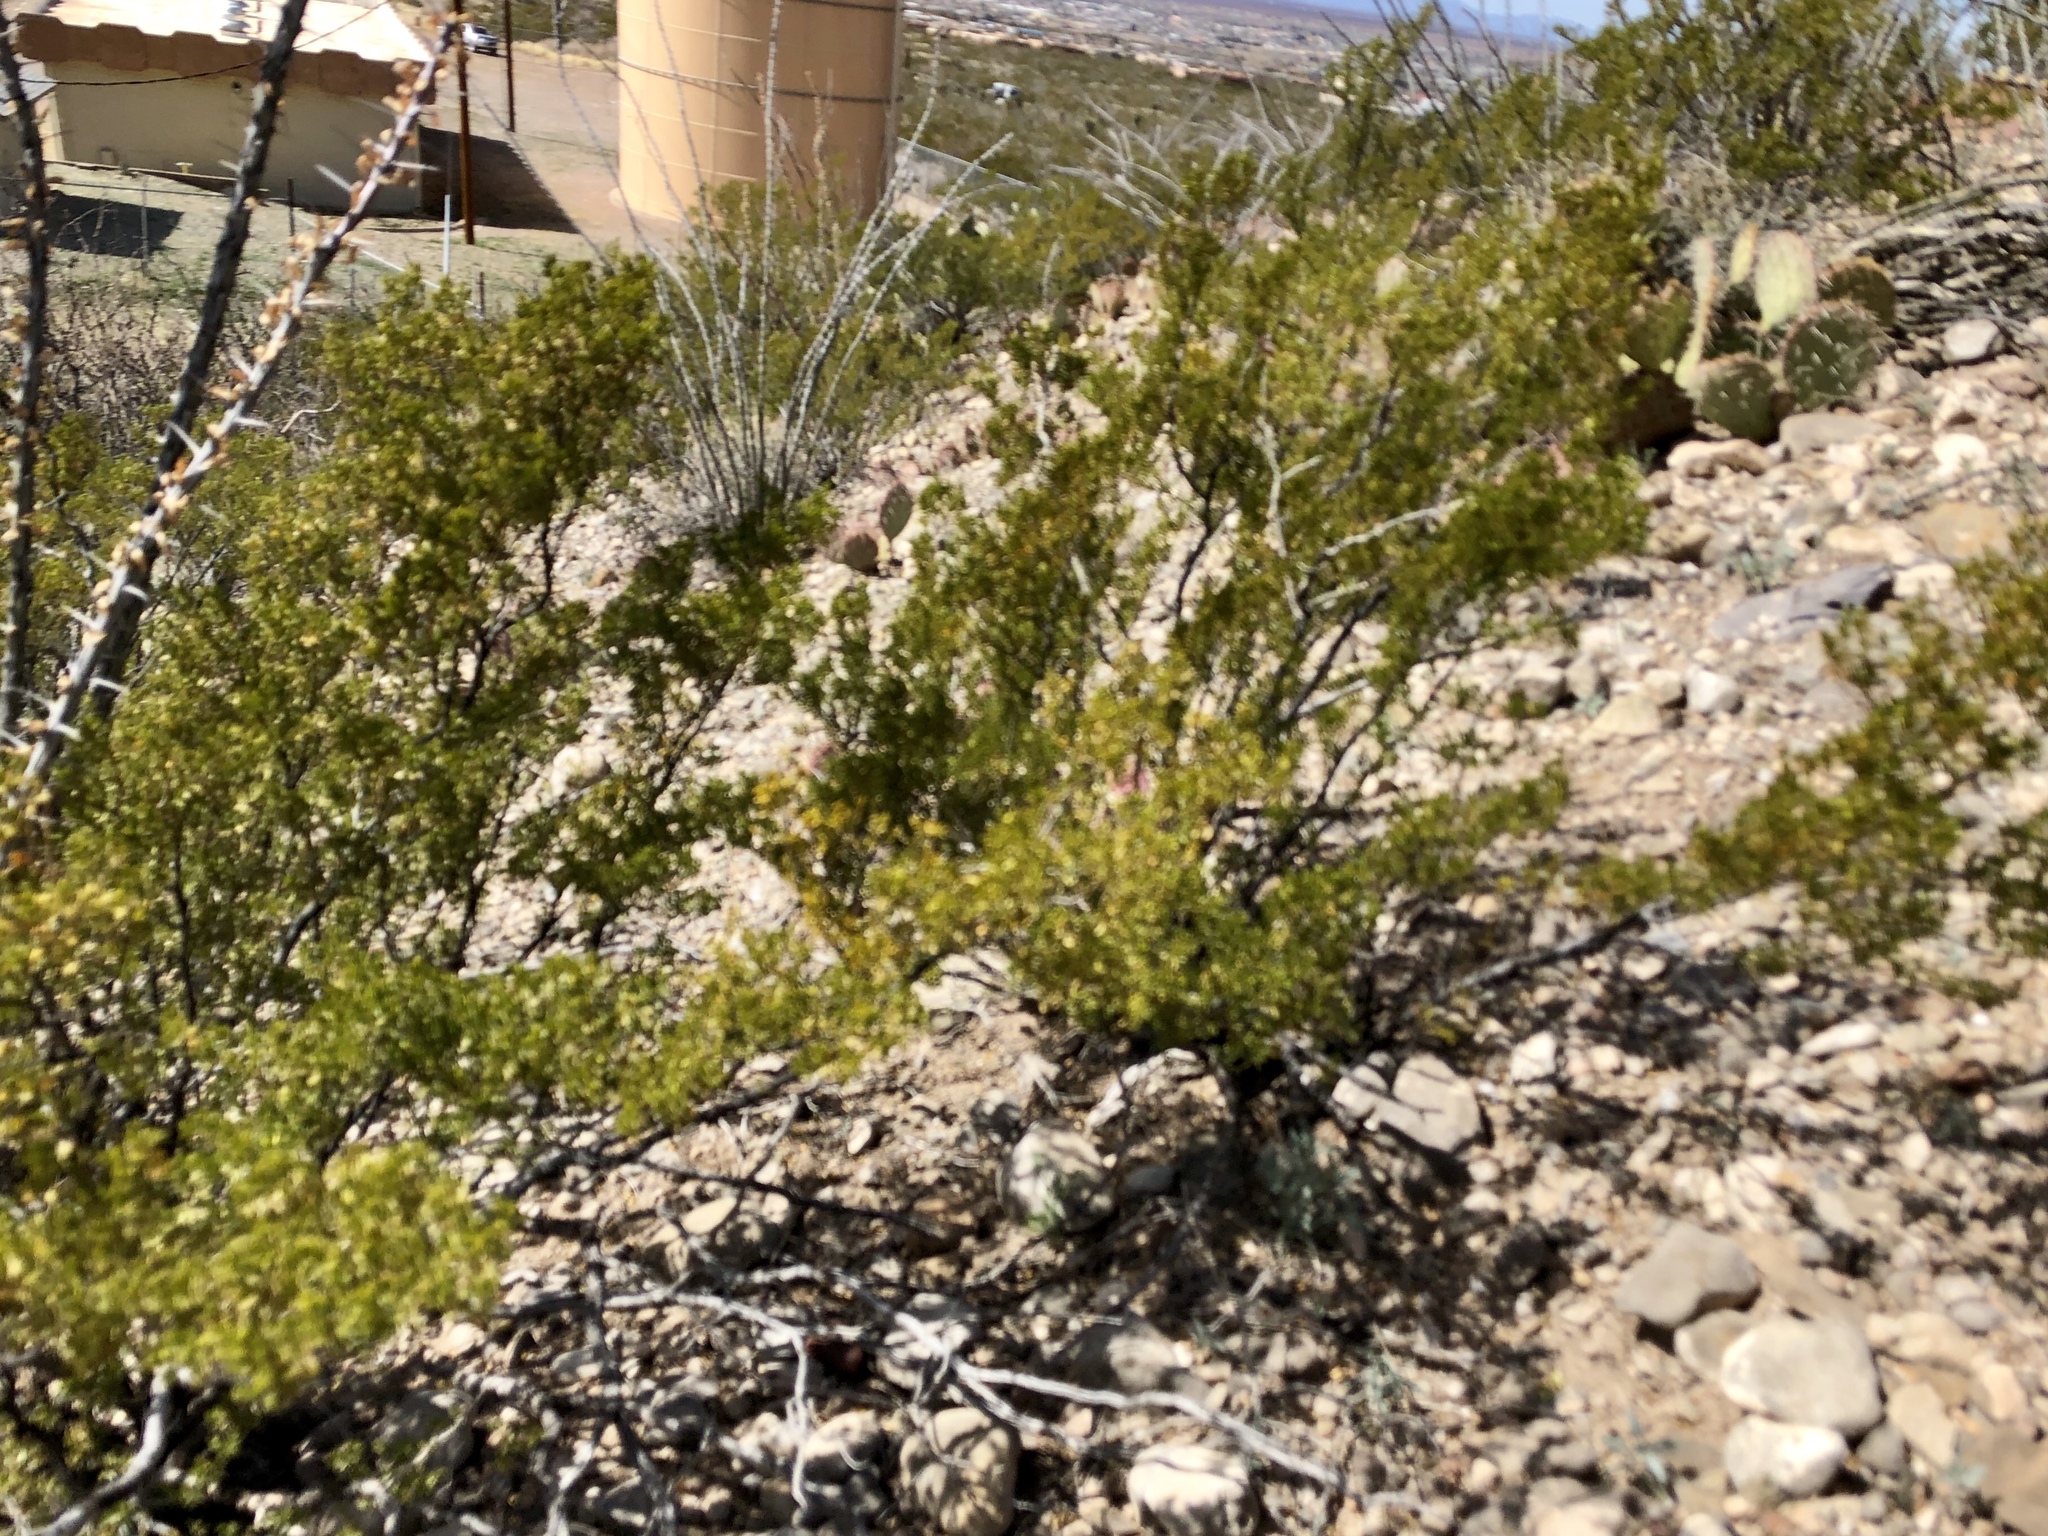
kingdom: Plantae
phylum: Tracheophyta
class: Magnoliopsida
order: Zygophyllales
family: Zygophyllaceae
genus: Larrea
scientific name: Larrea tridentata
